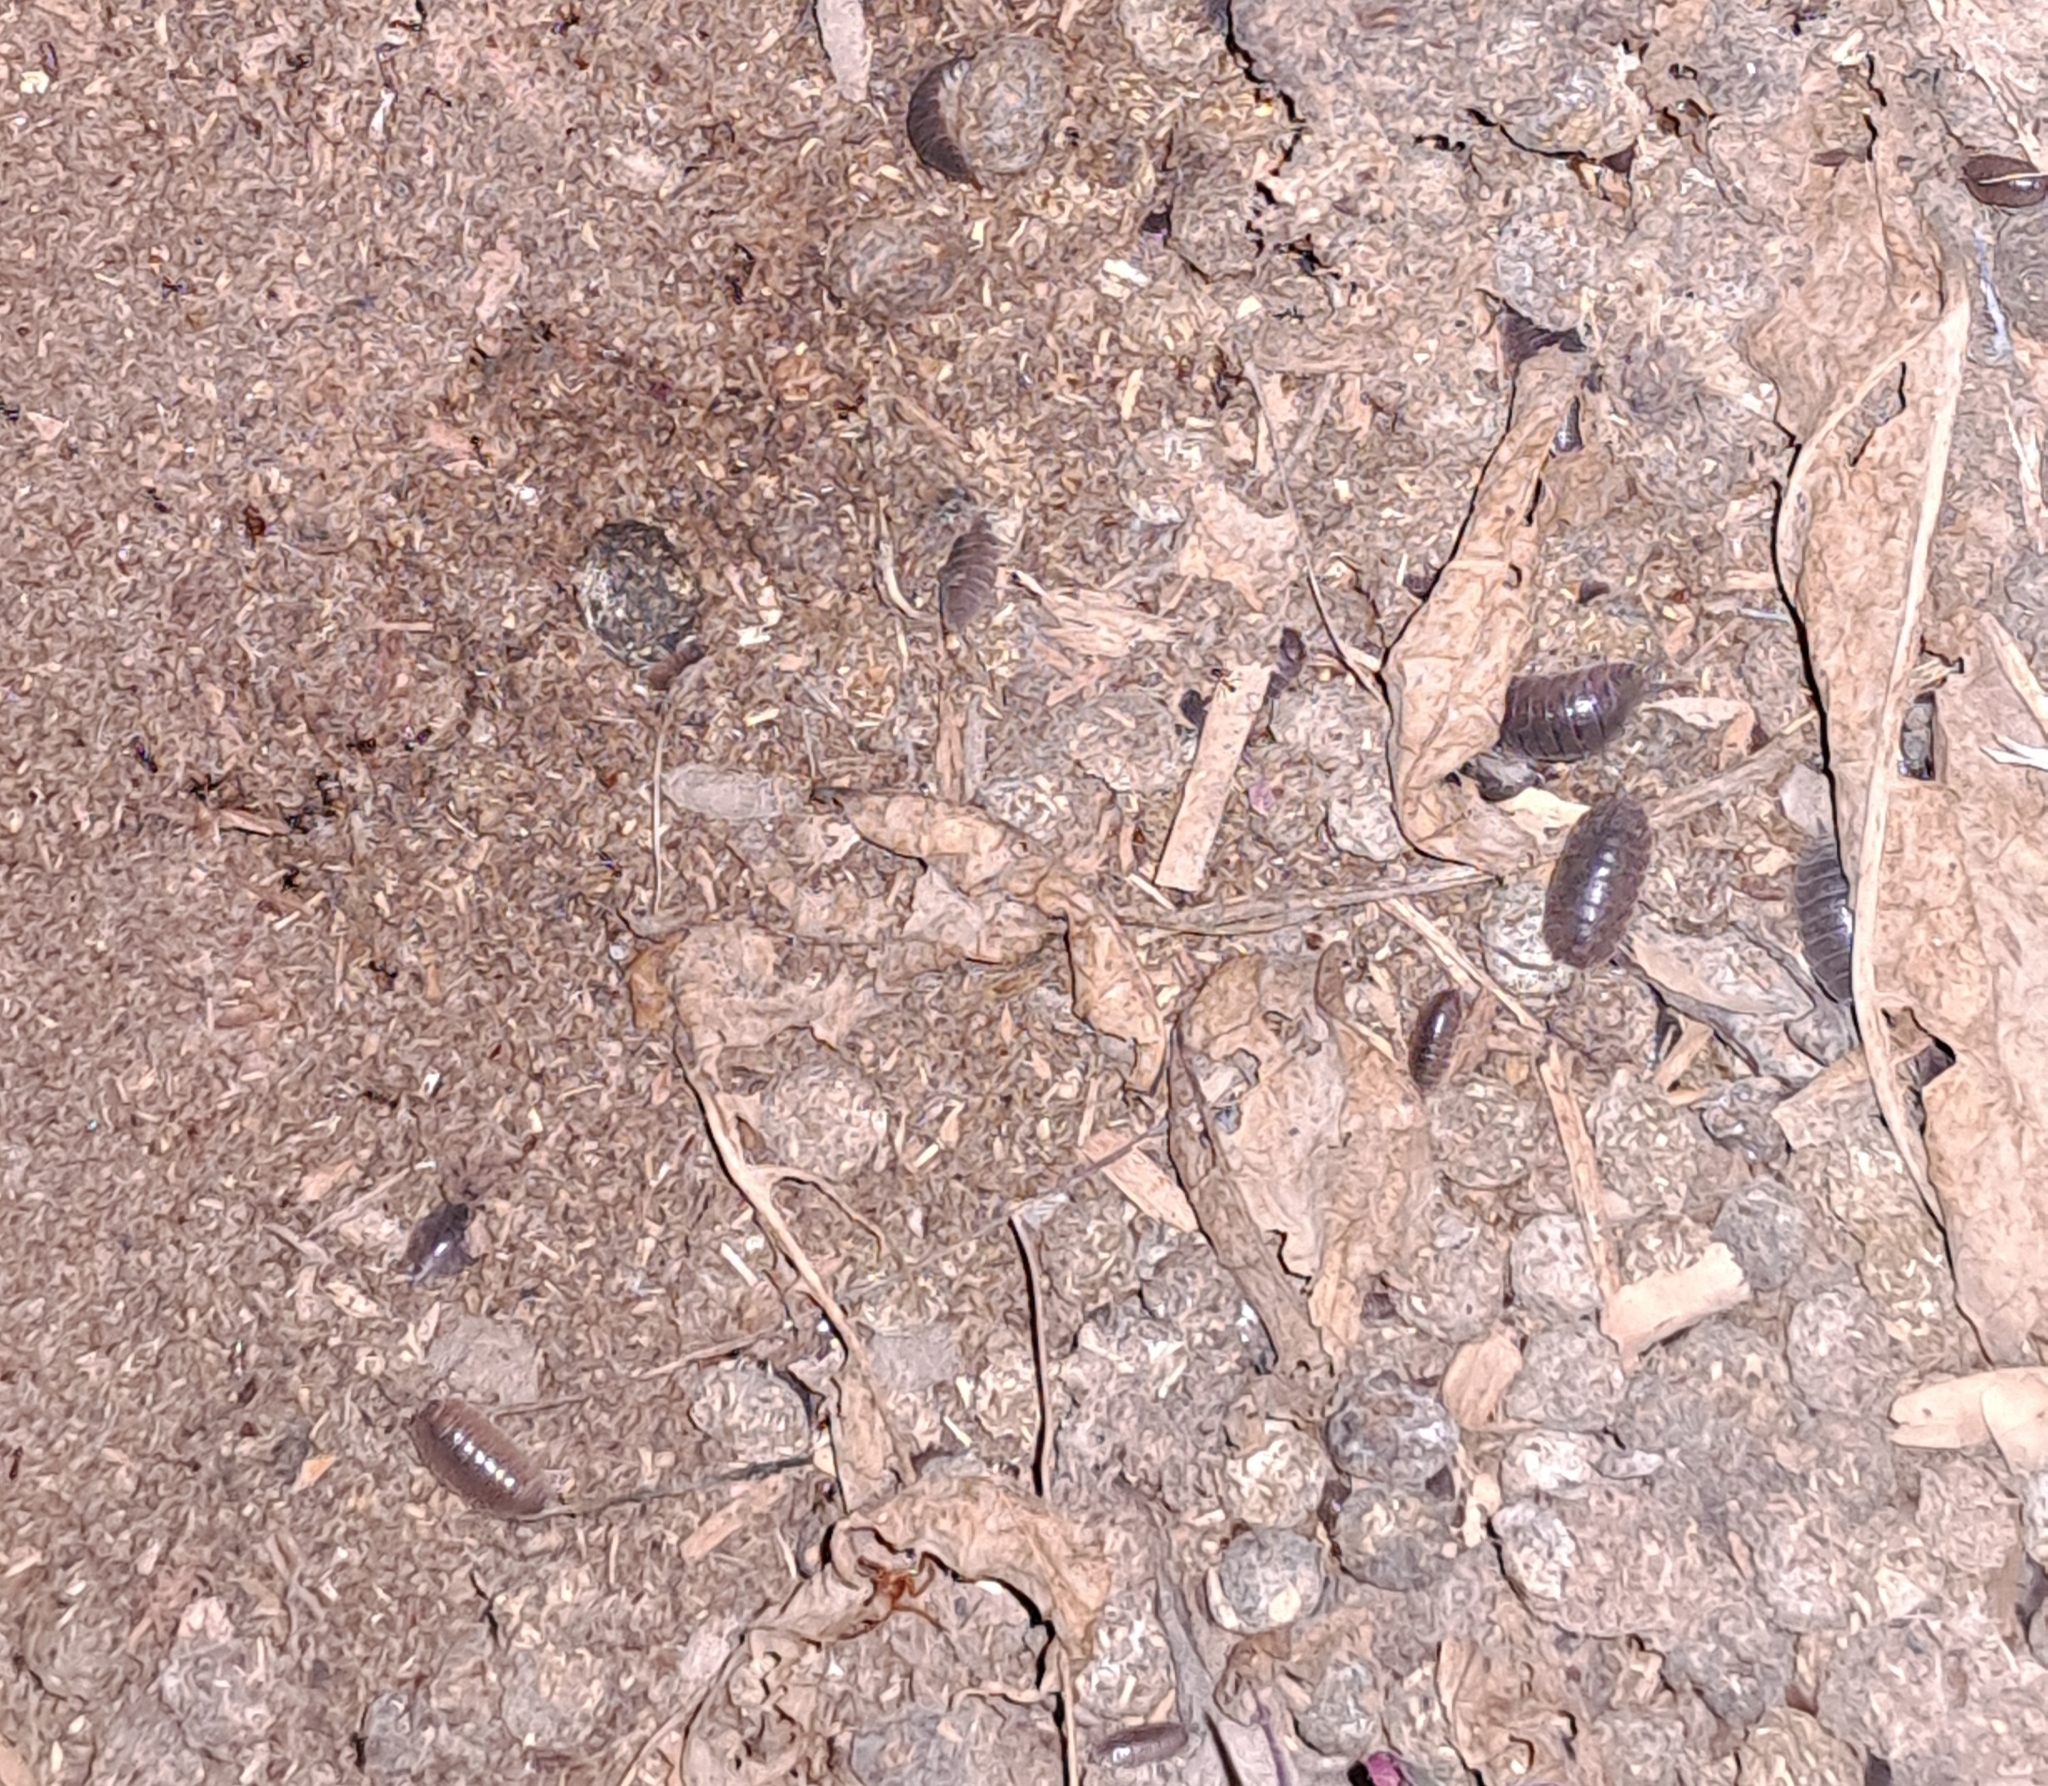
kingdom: Animalia
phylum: Arthropoda
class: Malacostraca
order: Isopoda
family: Porcellionidae
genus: Porcellio
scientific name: Porcellio laevis
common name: Swift woodlouse
